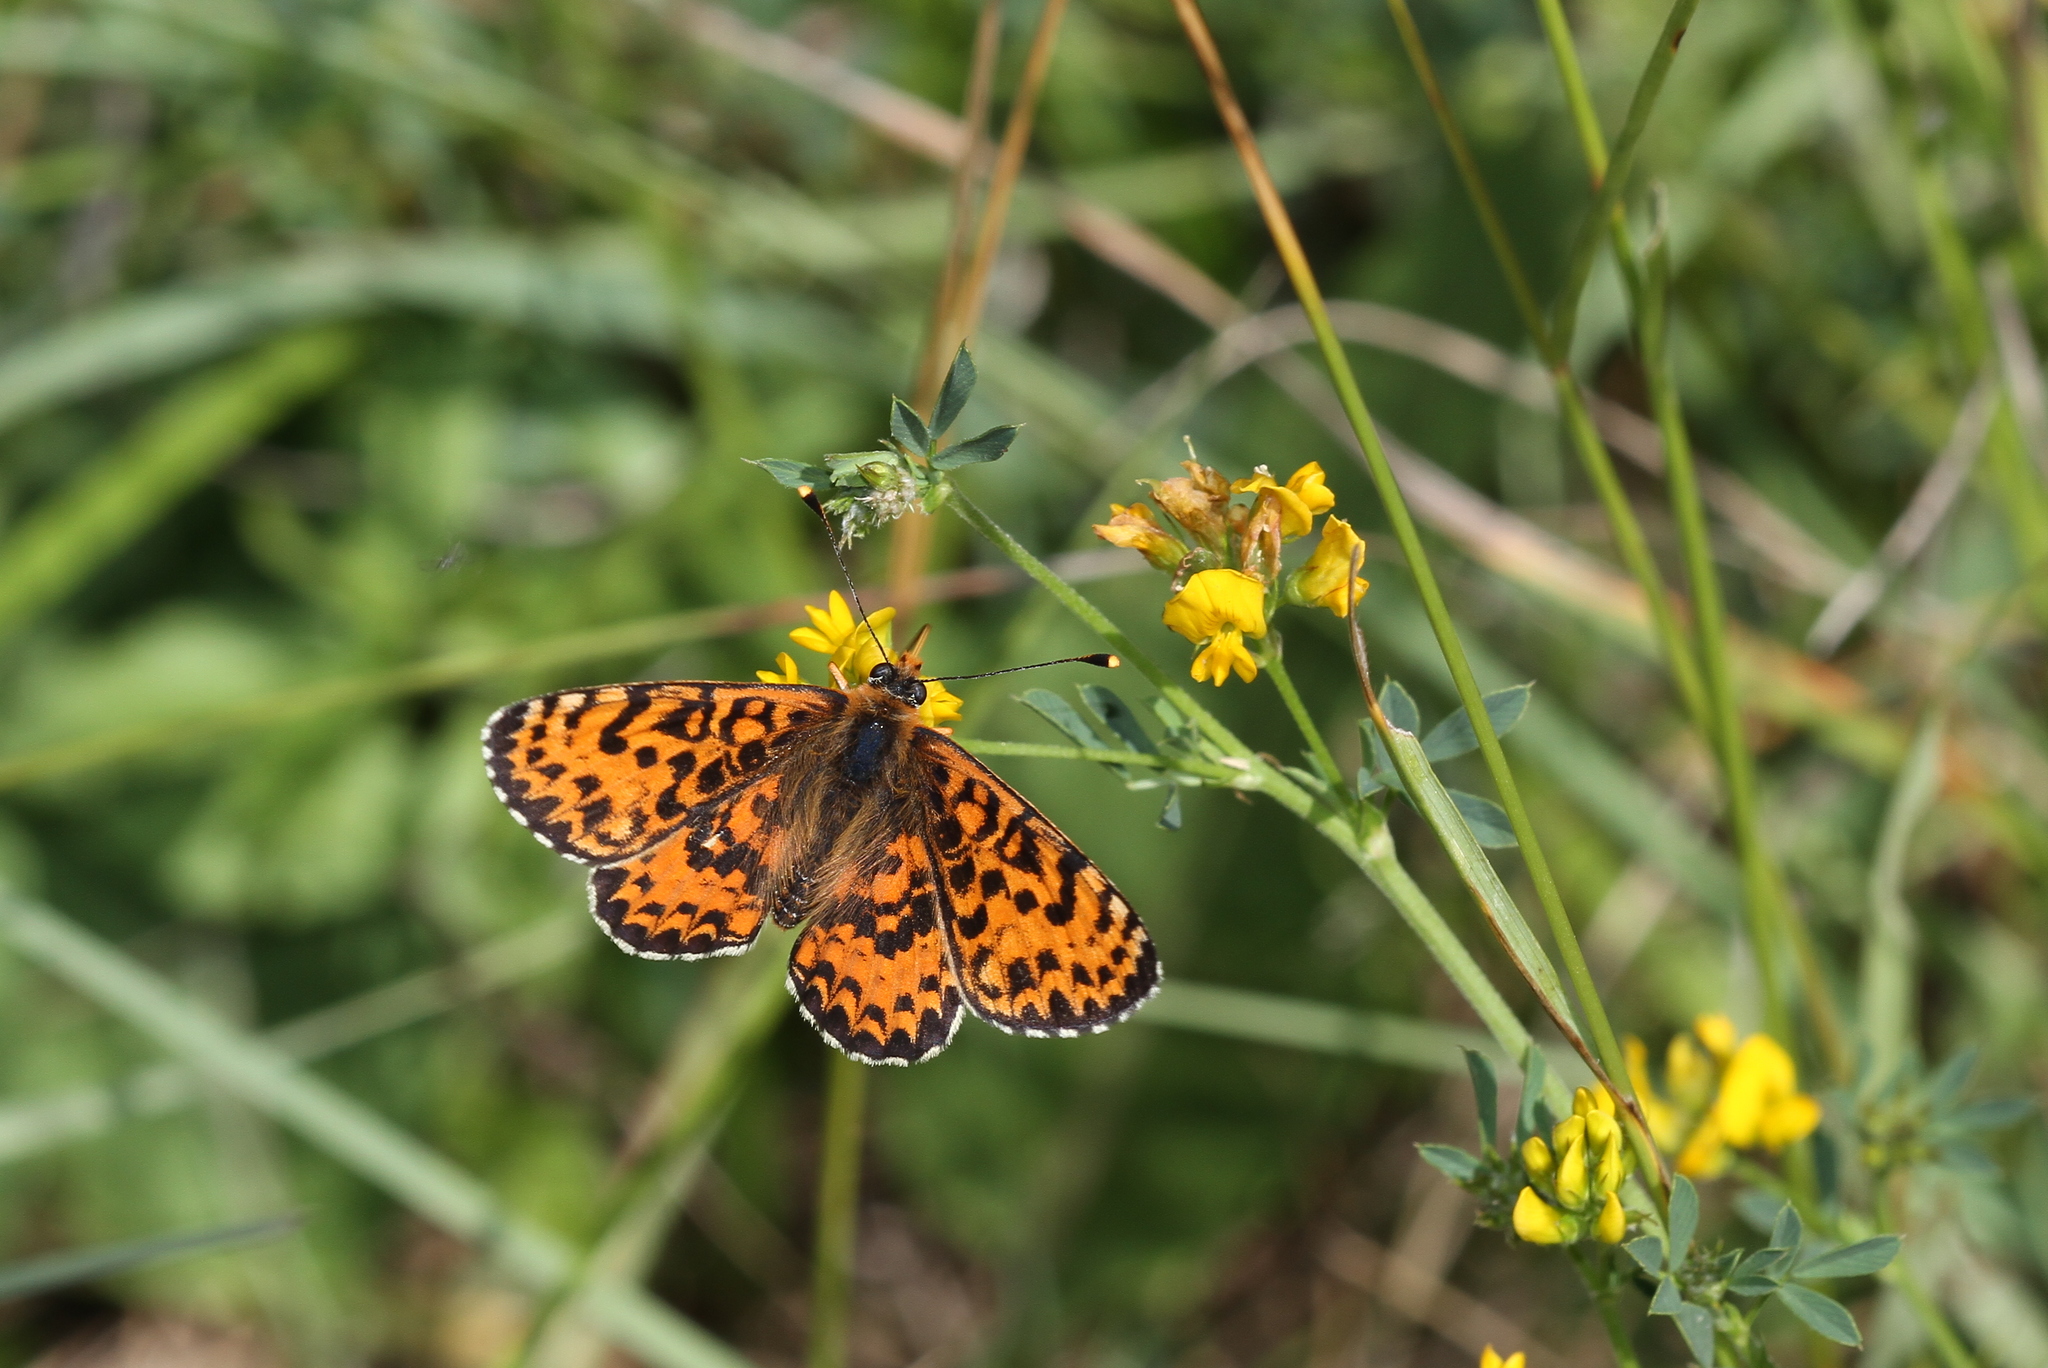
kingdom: Animalia
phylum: Arthropoda
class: Insecta
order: Lepidoptera
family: Nymphalidae
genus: Melitaea
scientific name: Melitaea didyma
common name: Spotted fritillary
